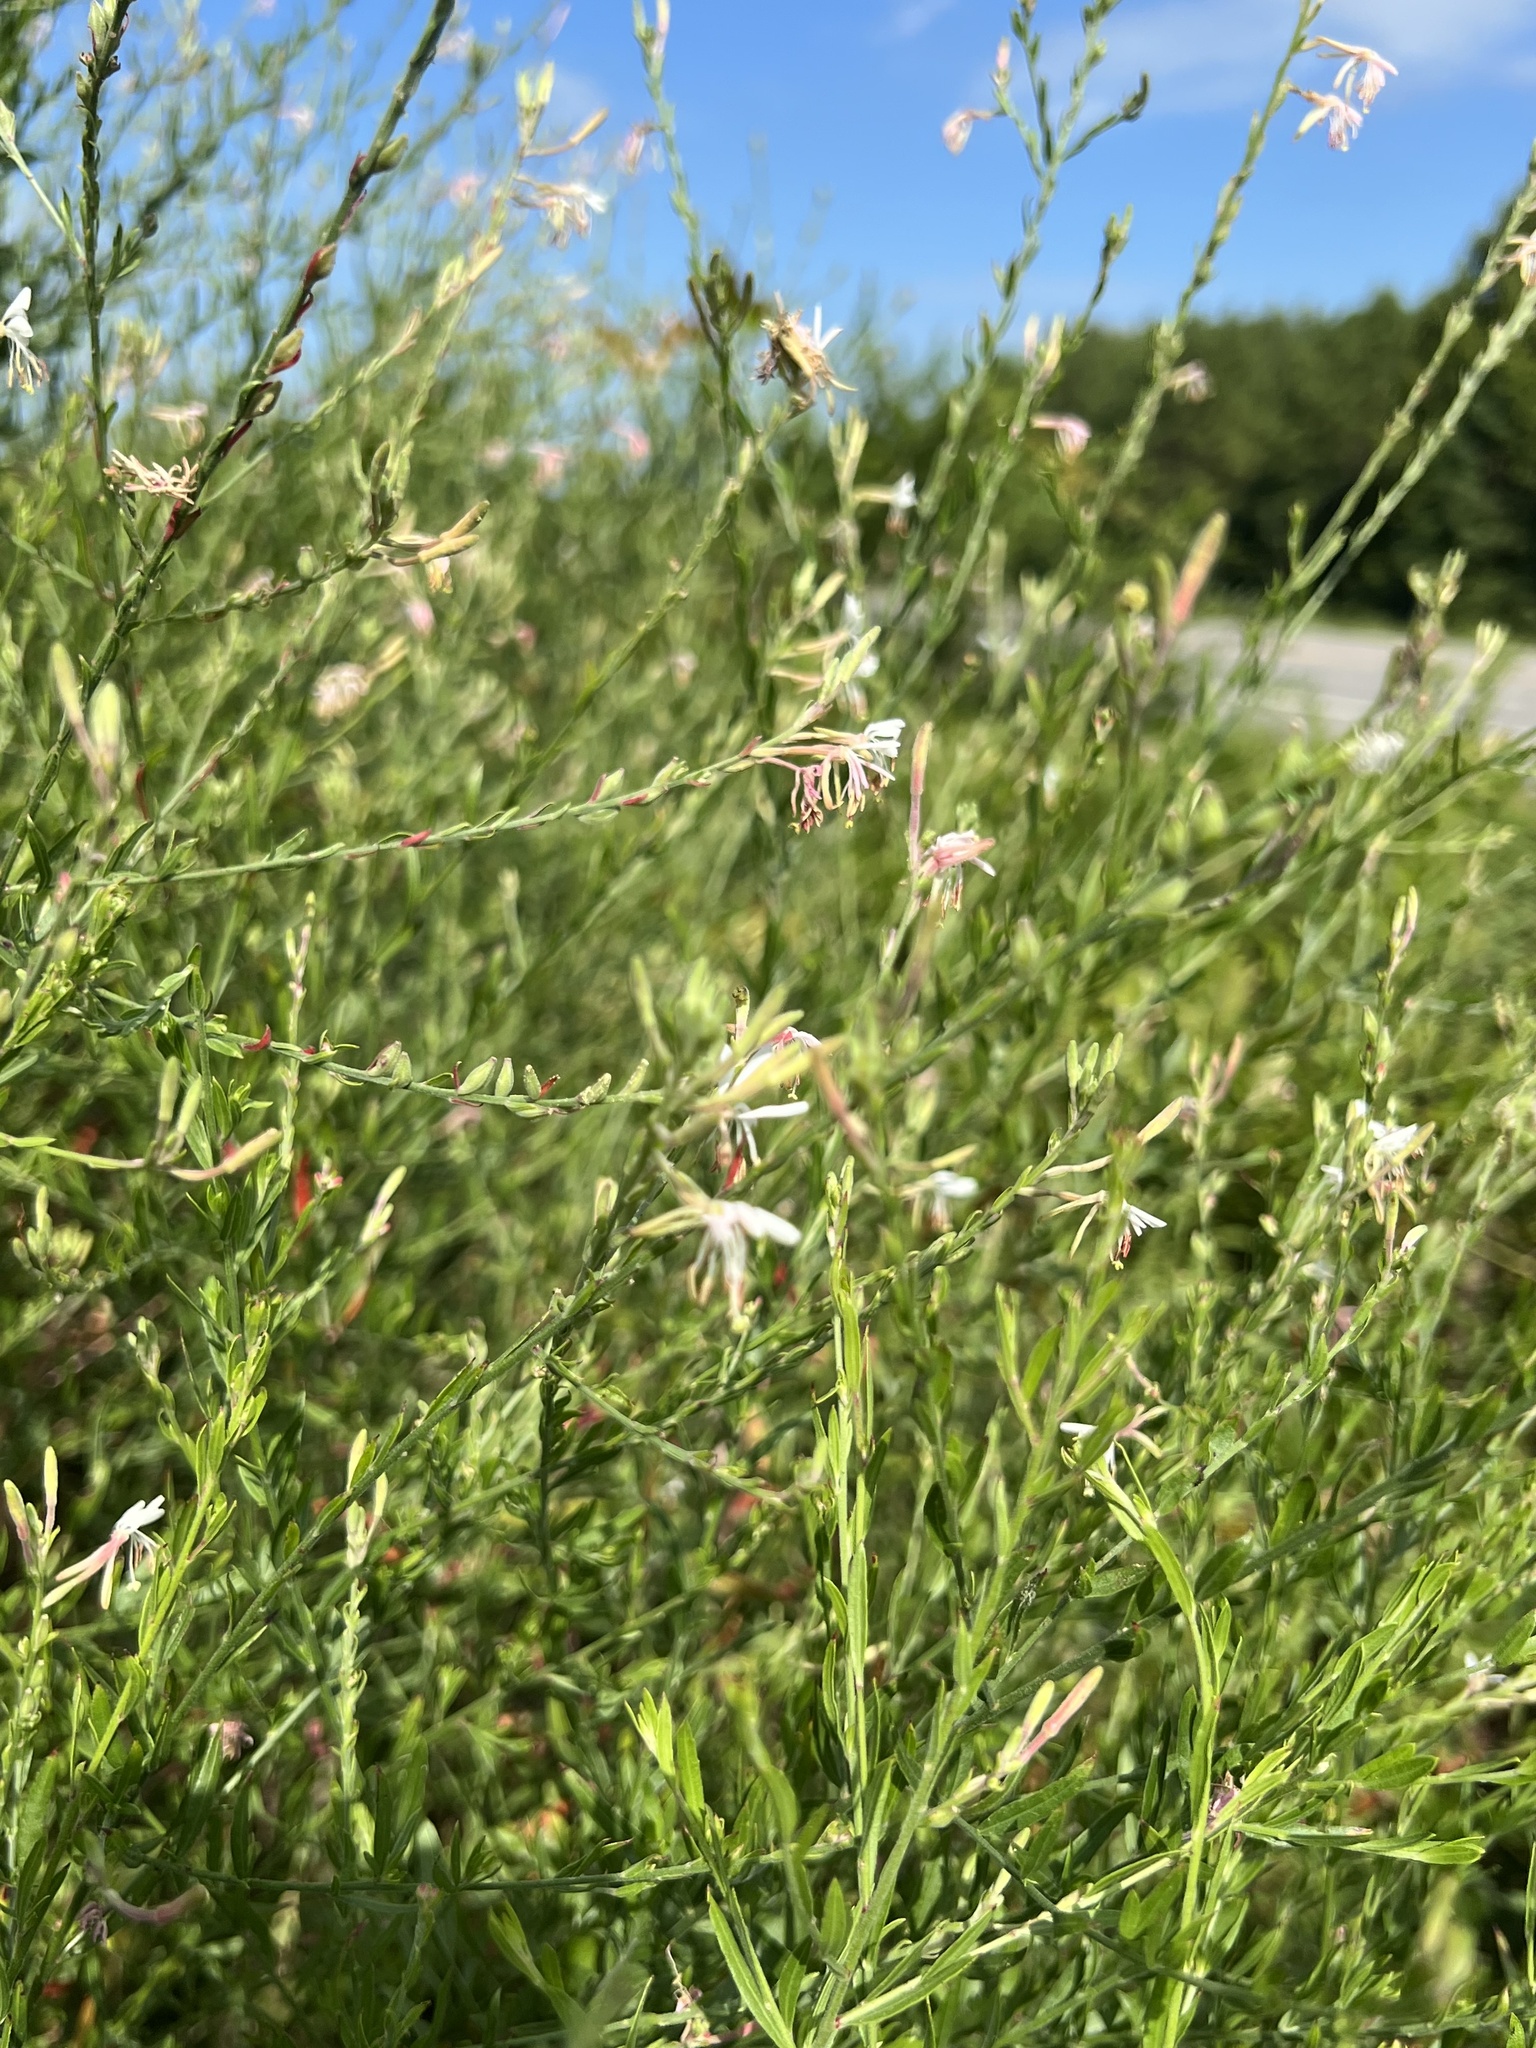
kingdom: Plantae
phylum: Tracheophyta
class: Magnoliopsida
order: Myrtales
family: Onagraceae
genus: Oenothera
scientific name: Oenothera filiformis
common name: Longflower beeblossom
